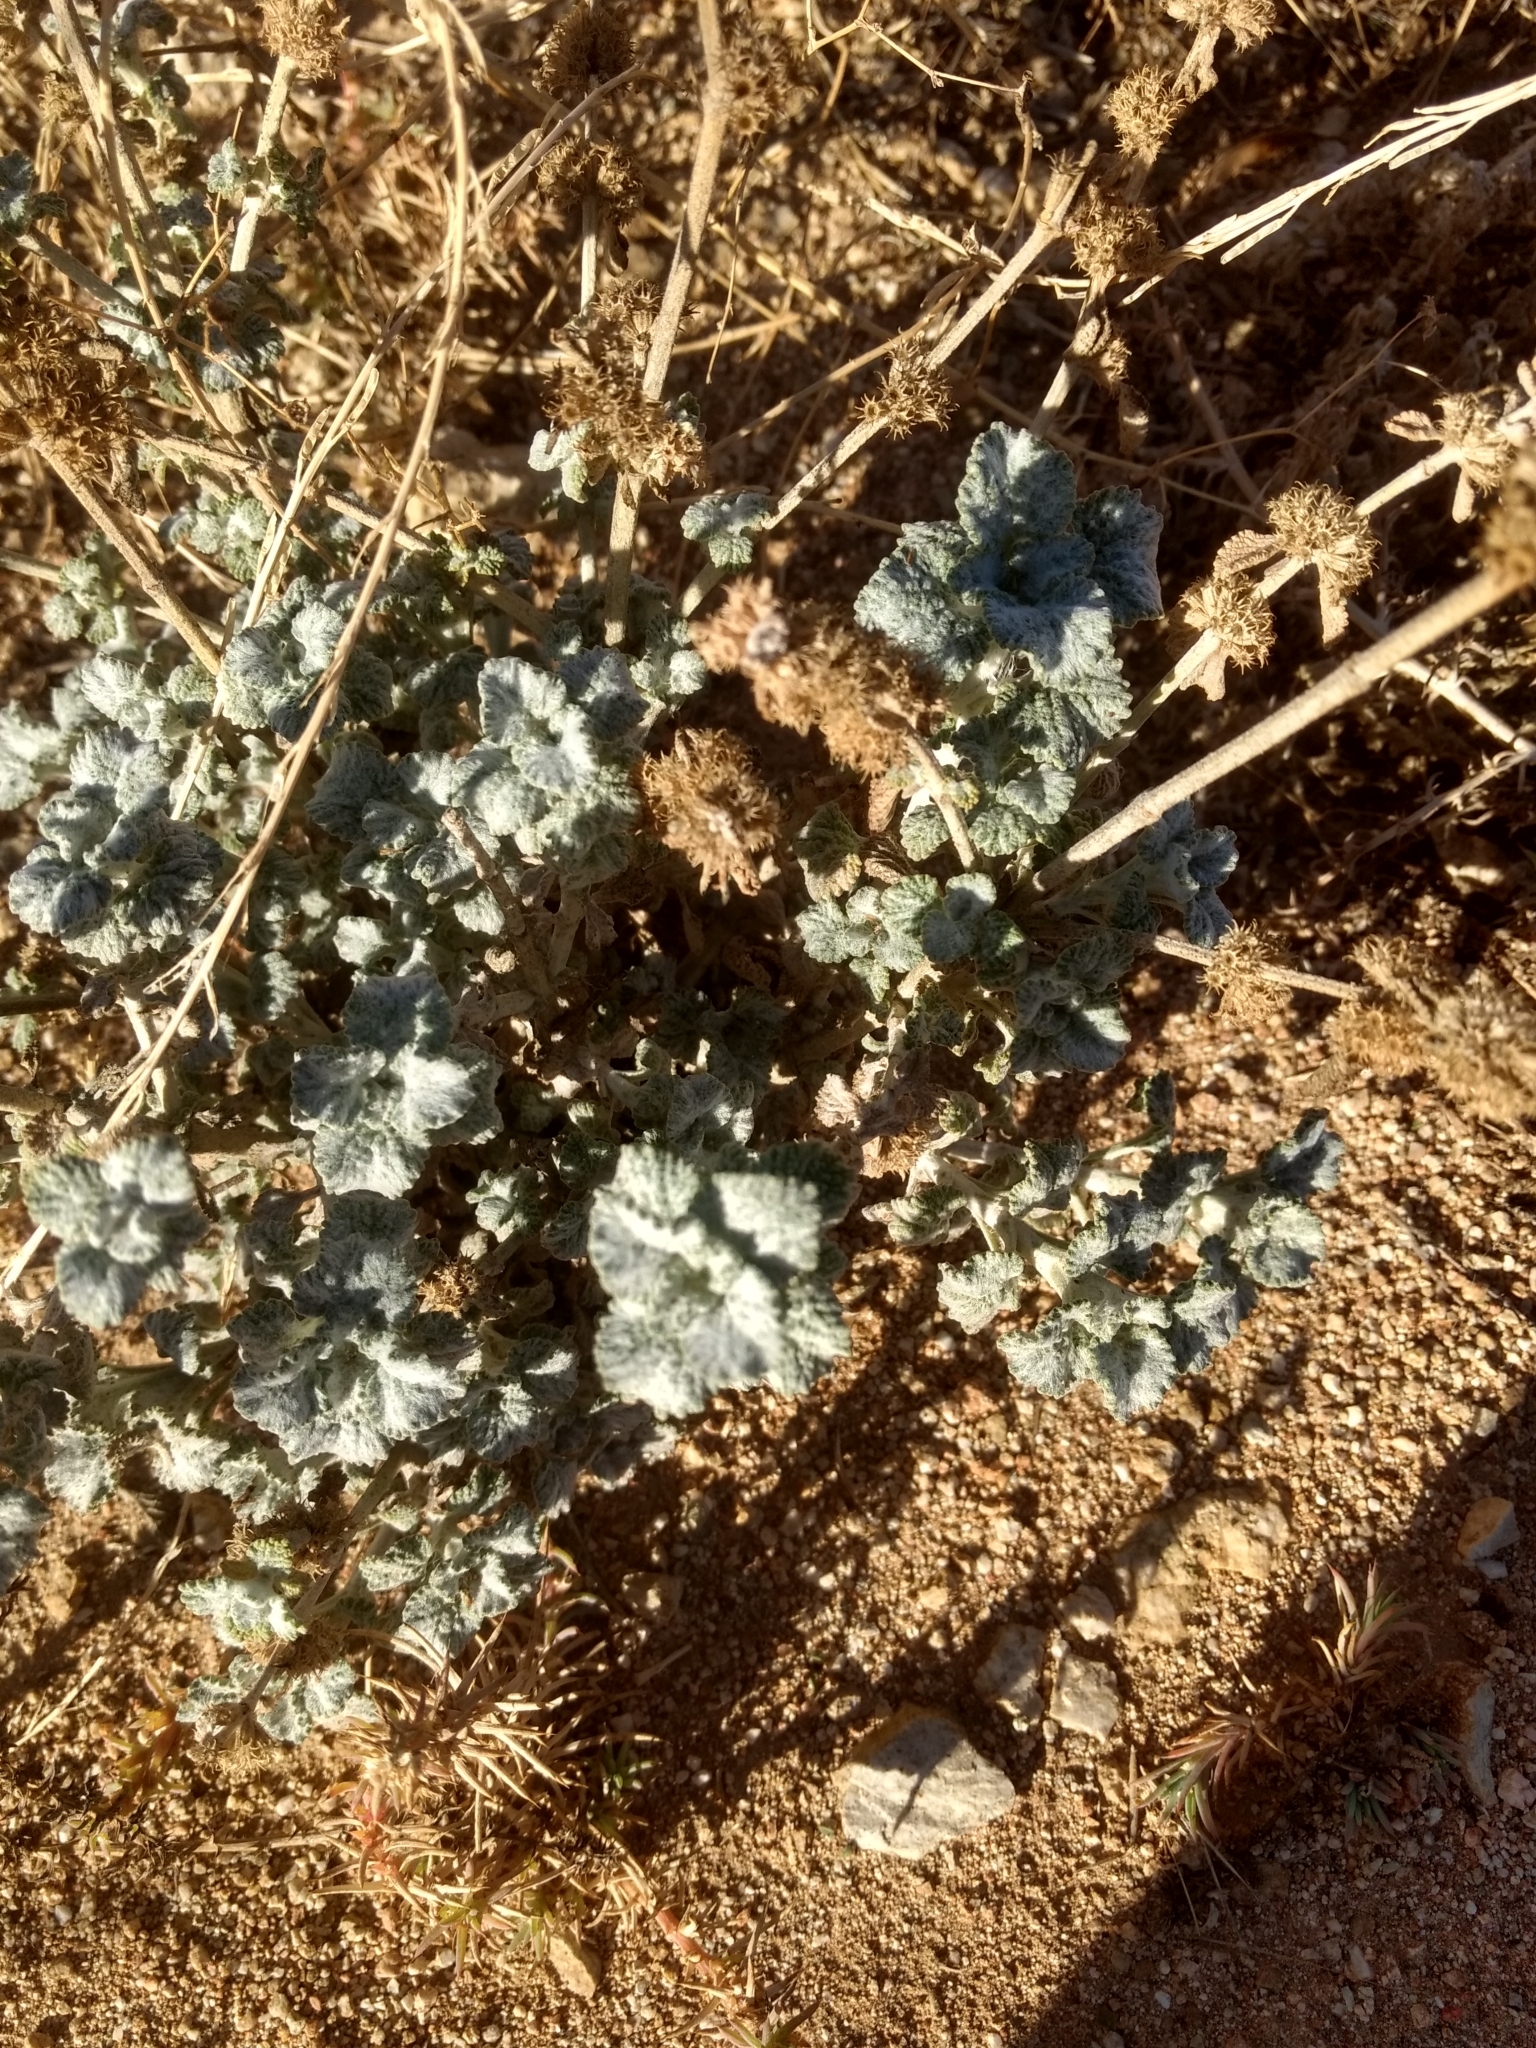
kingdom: Plantae
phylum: Tracheophyta
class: Magnoliopsida
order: Lamiales
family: Lamiaceae
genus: Marrubium
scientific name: Marrubium vulgare
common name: Horehound
